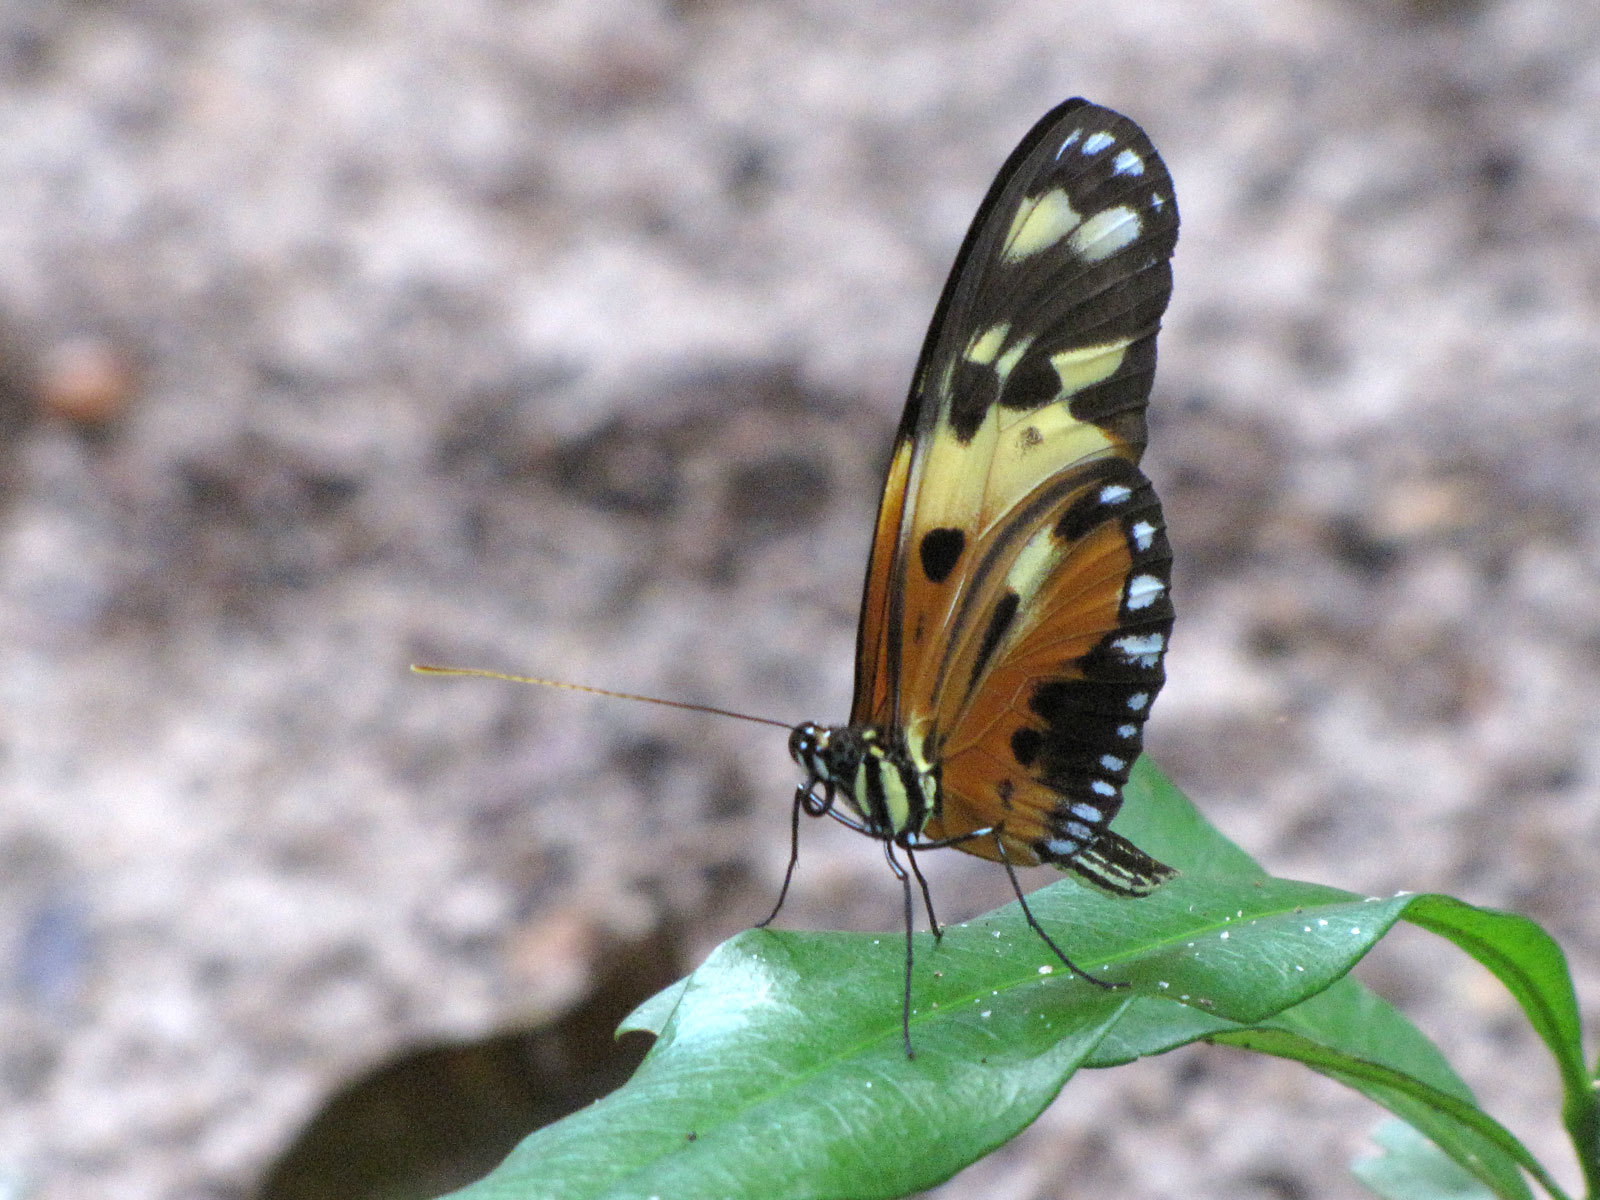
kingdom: Animalia
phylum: Arthropoda
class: Insecta
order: Lepidoptera
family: Nymphalidae
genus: Heliconius
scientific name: Heliconius numatus
